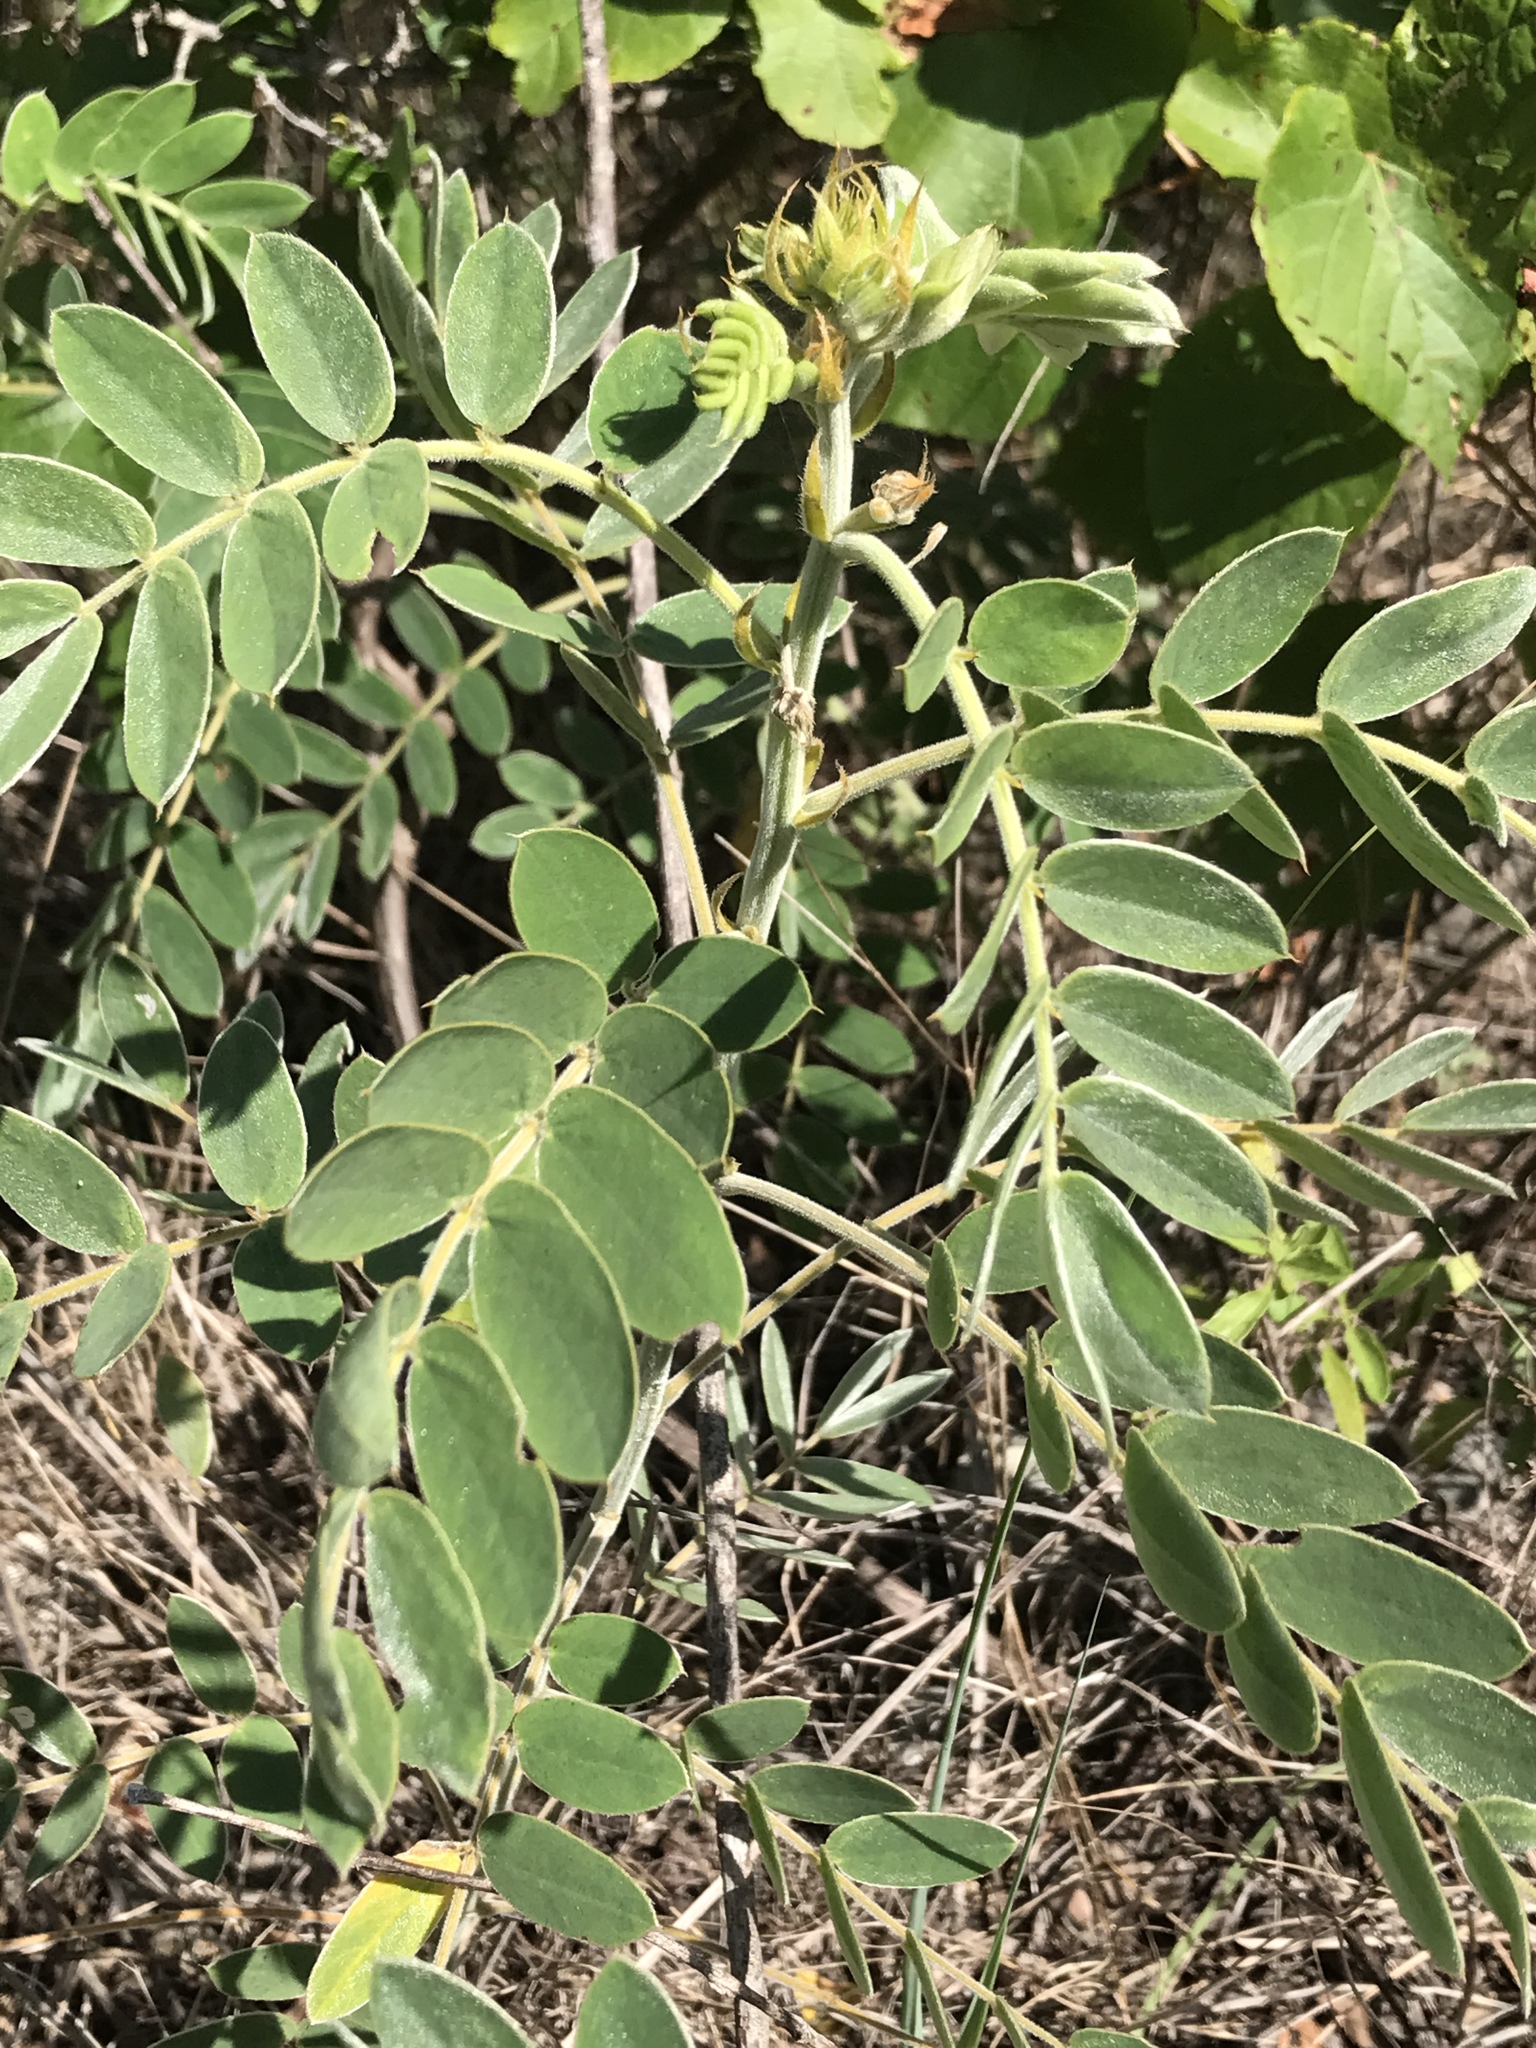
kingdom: Plantae
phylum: Tracheophyta
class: Magnoliopsida
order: Fabales
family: Fabaceae
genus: Senna
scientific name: Senna lindheimeriana
